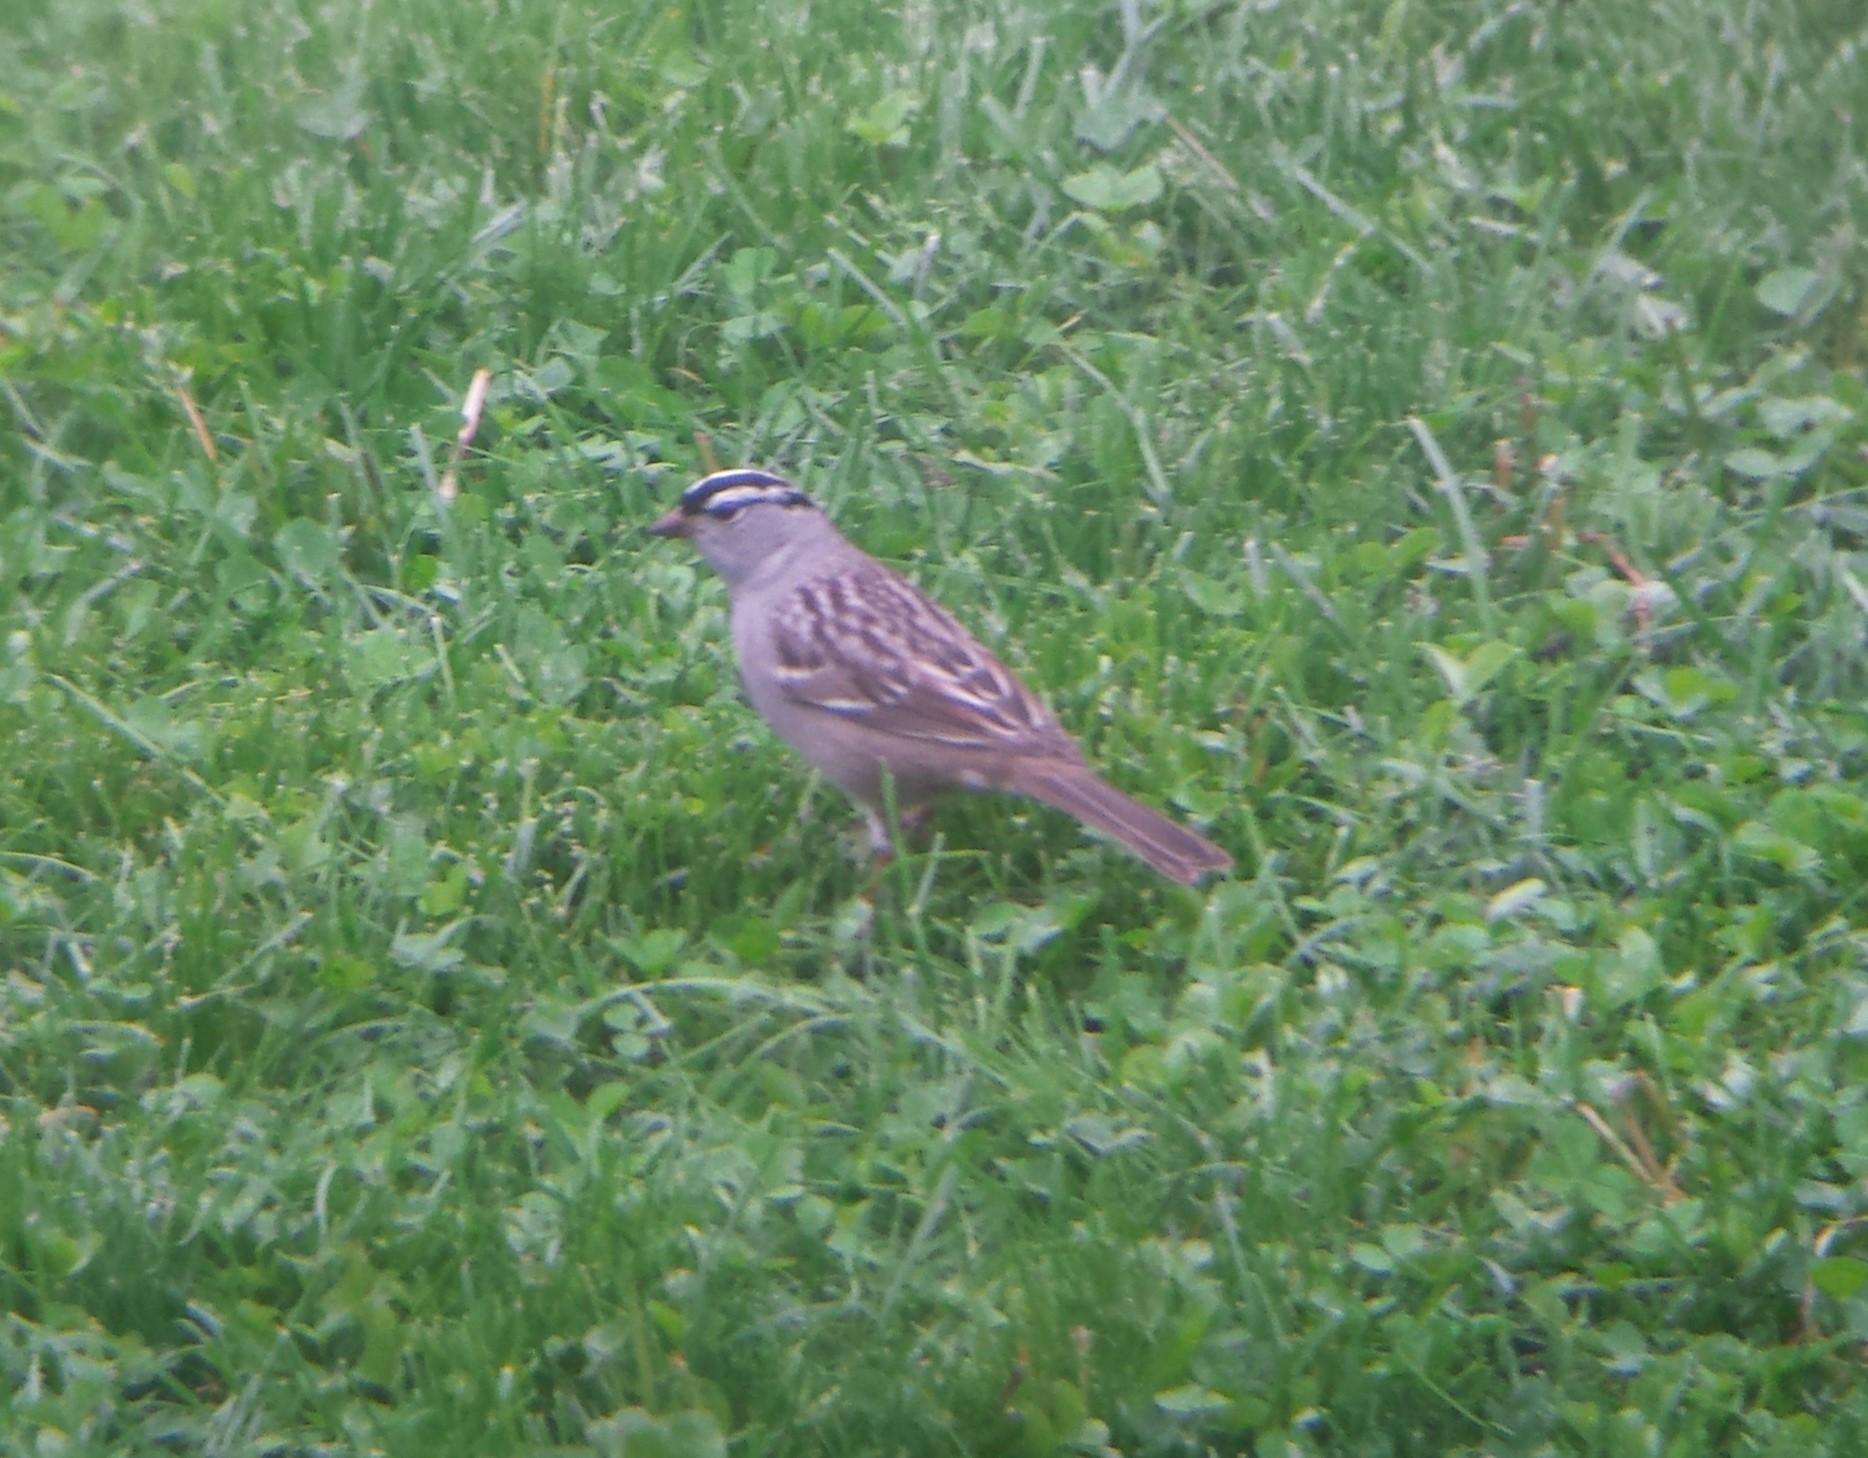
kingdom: Animalia
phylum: Chordata
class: Aves
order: Passeriformes
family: Passerellidae
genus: Zonotrichia
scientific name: Zonotrichia leucophrys
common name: White-crowned sparrow
